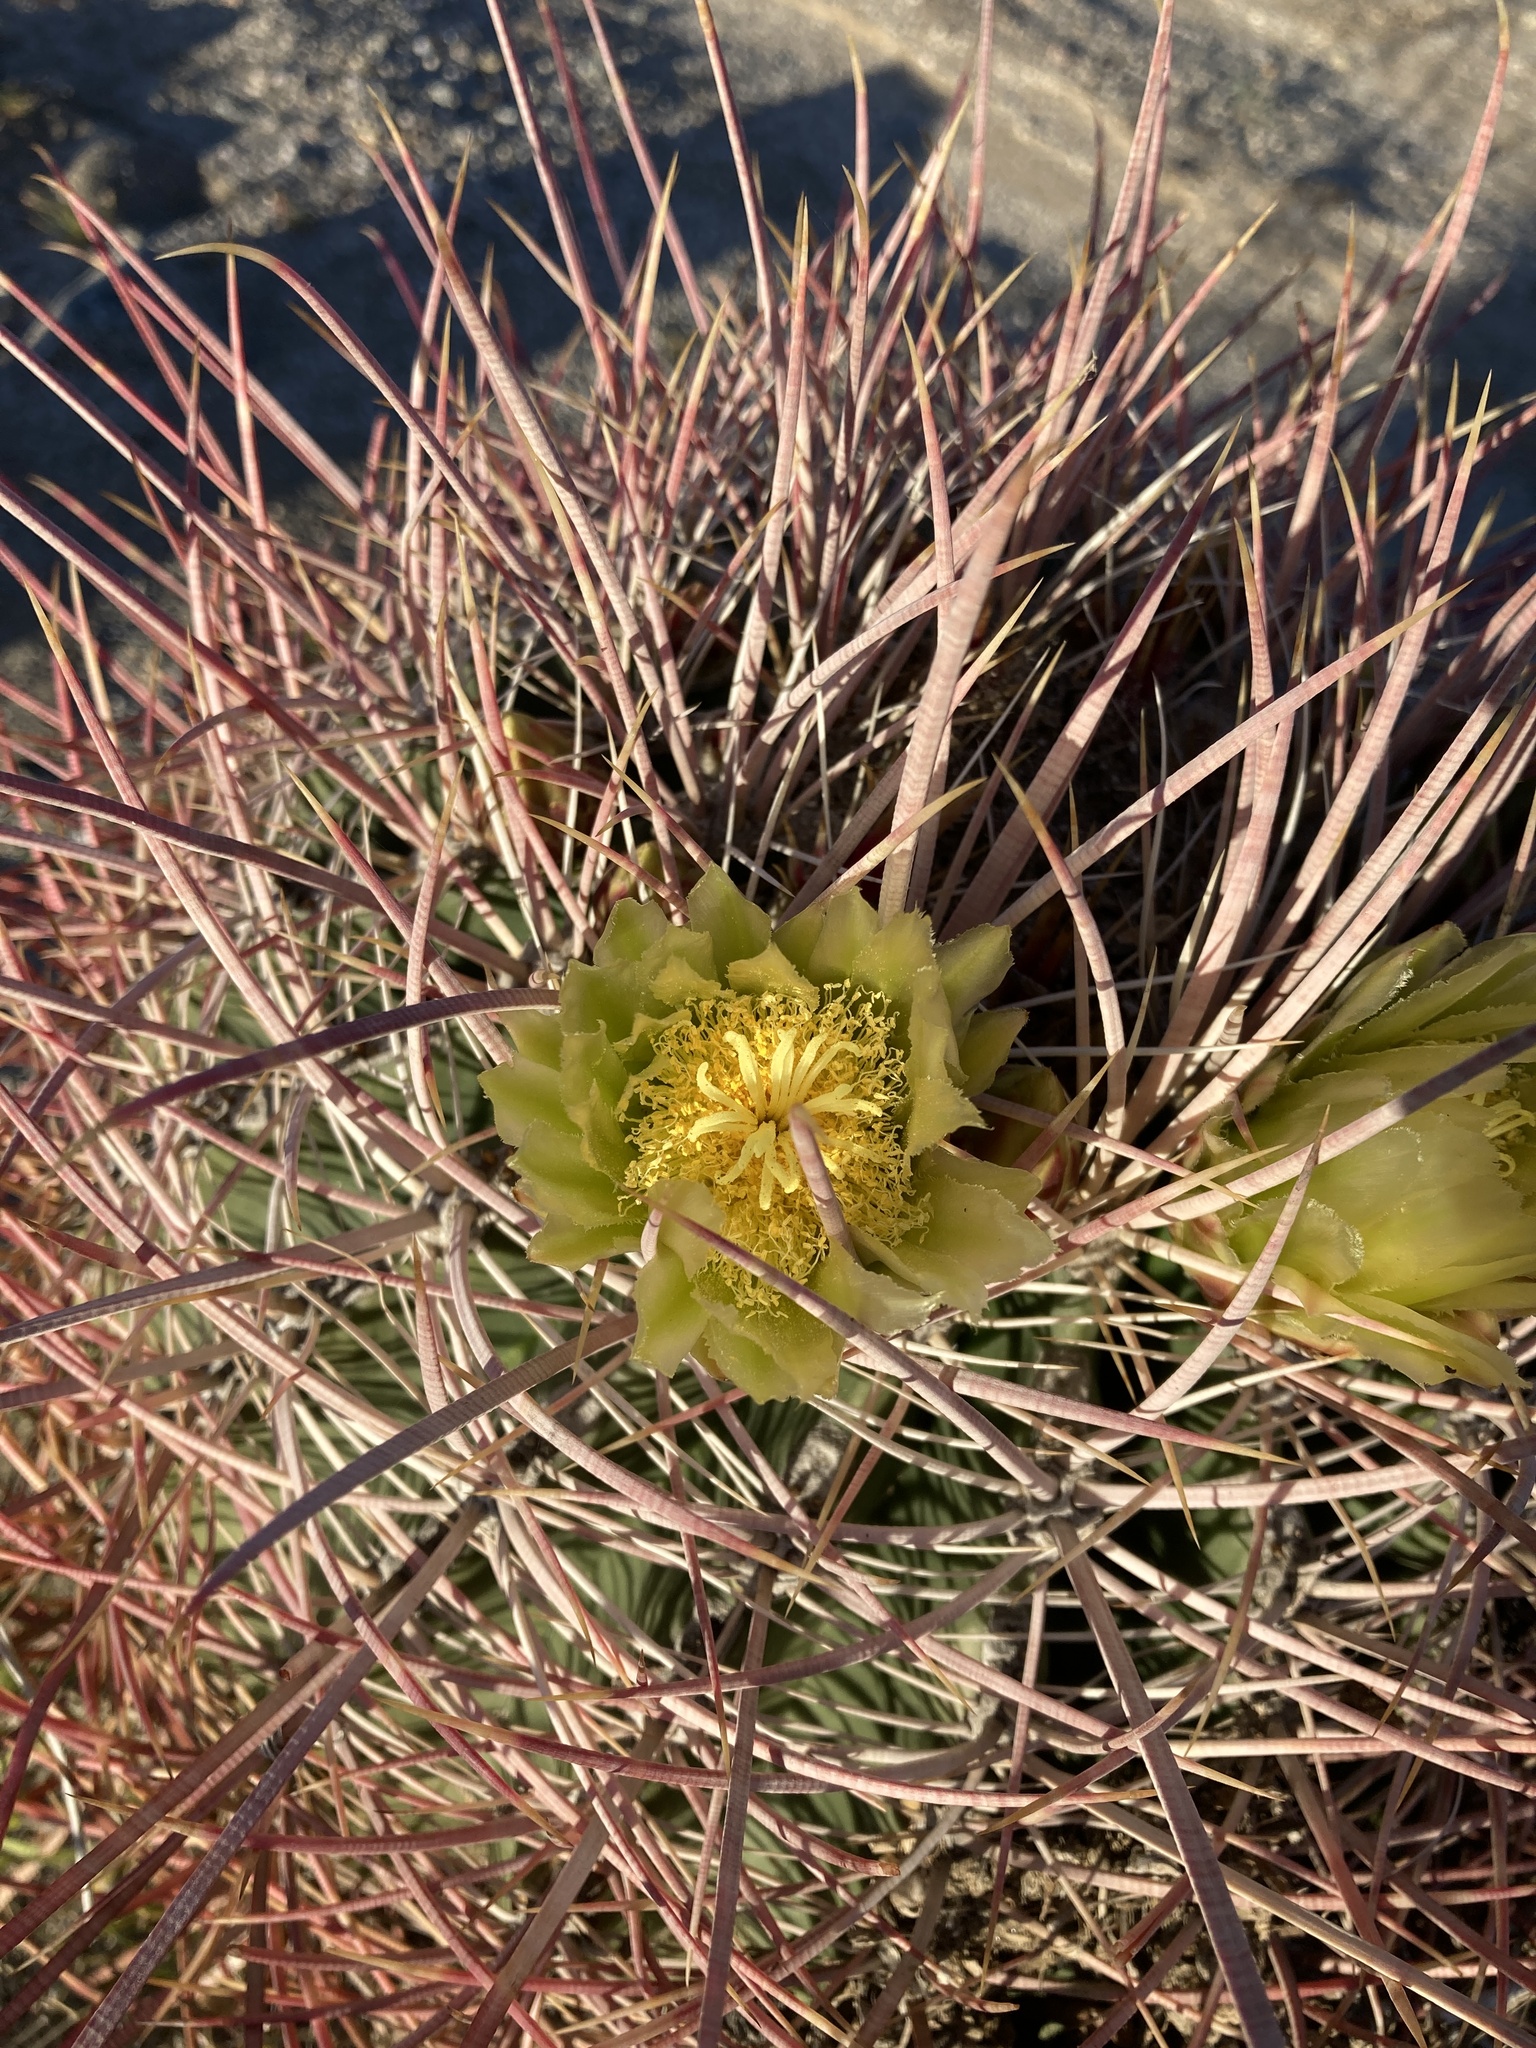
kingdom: Plantae
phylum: Tracheophyta
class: Magnoliopsida
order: Caryophyllales
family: Cactaceae
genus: Ferocactus
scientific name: Ferocactus cylindraceus
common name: California barrel cactus
